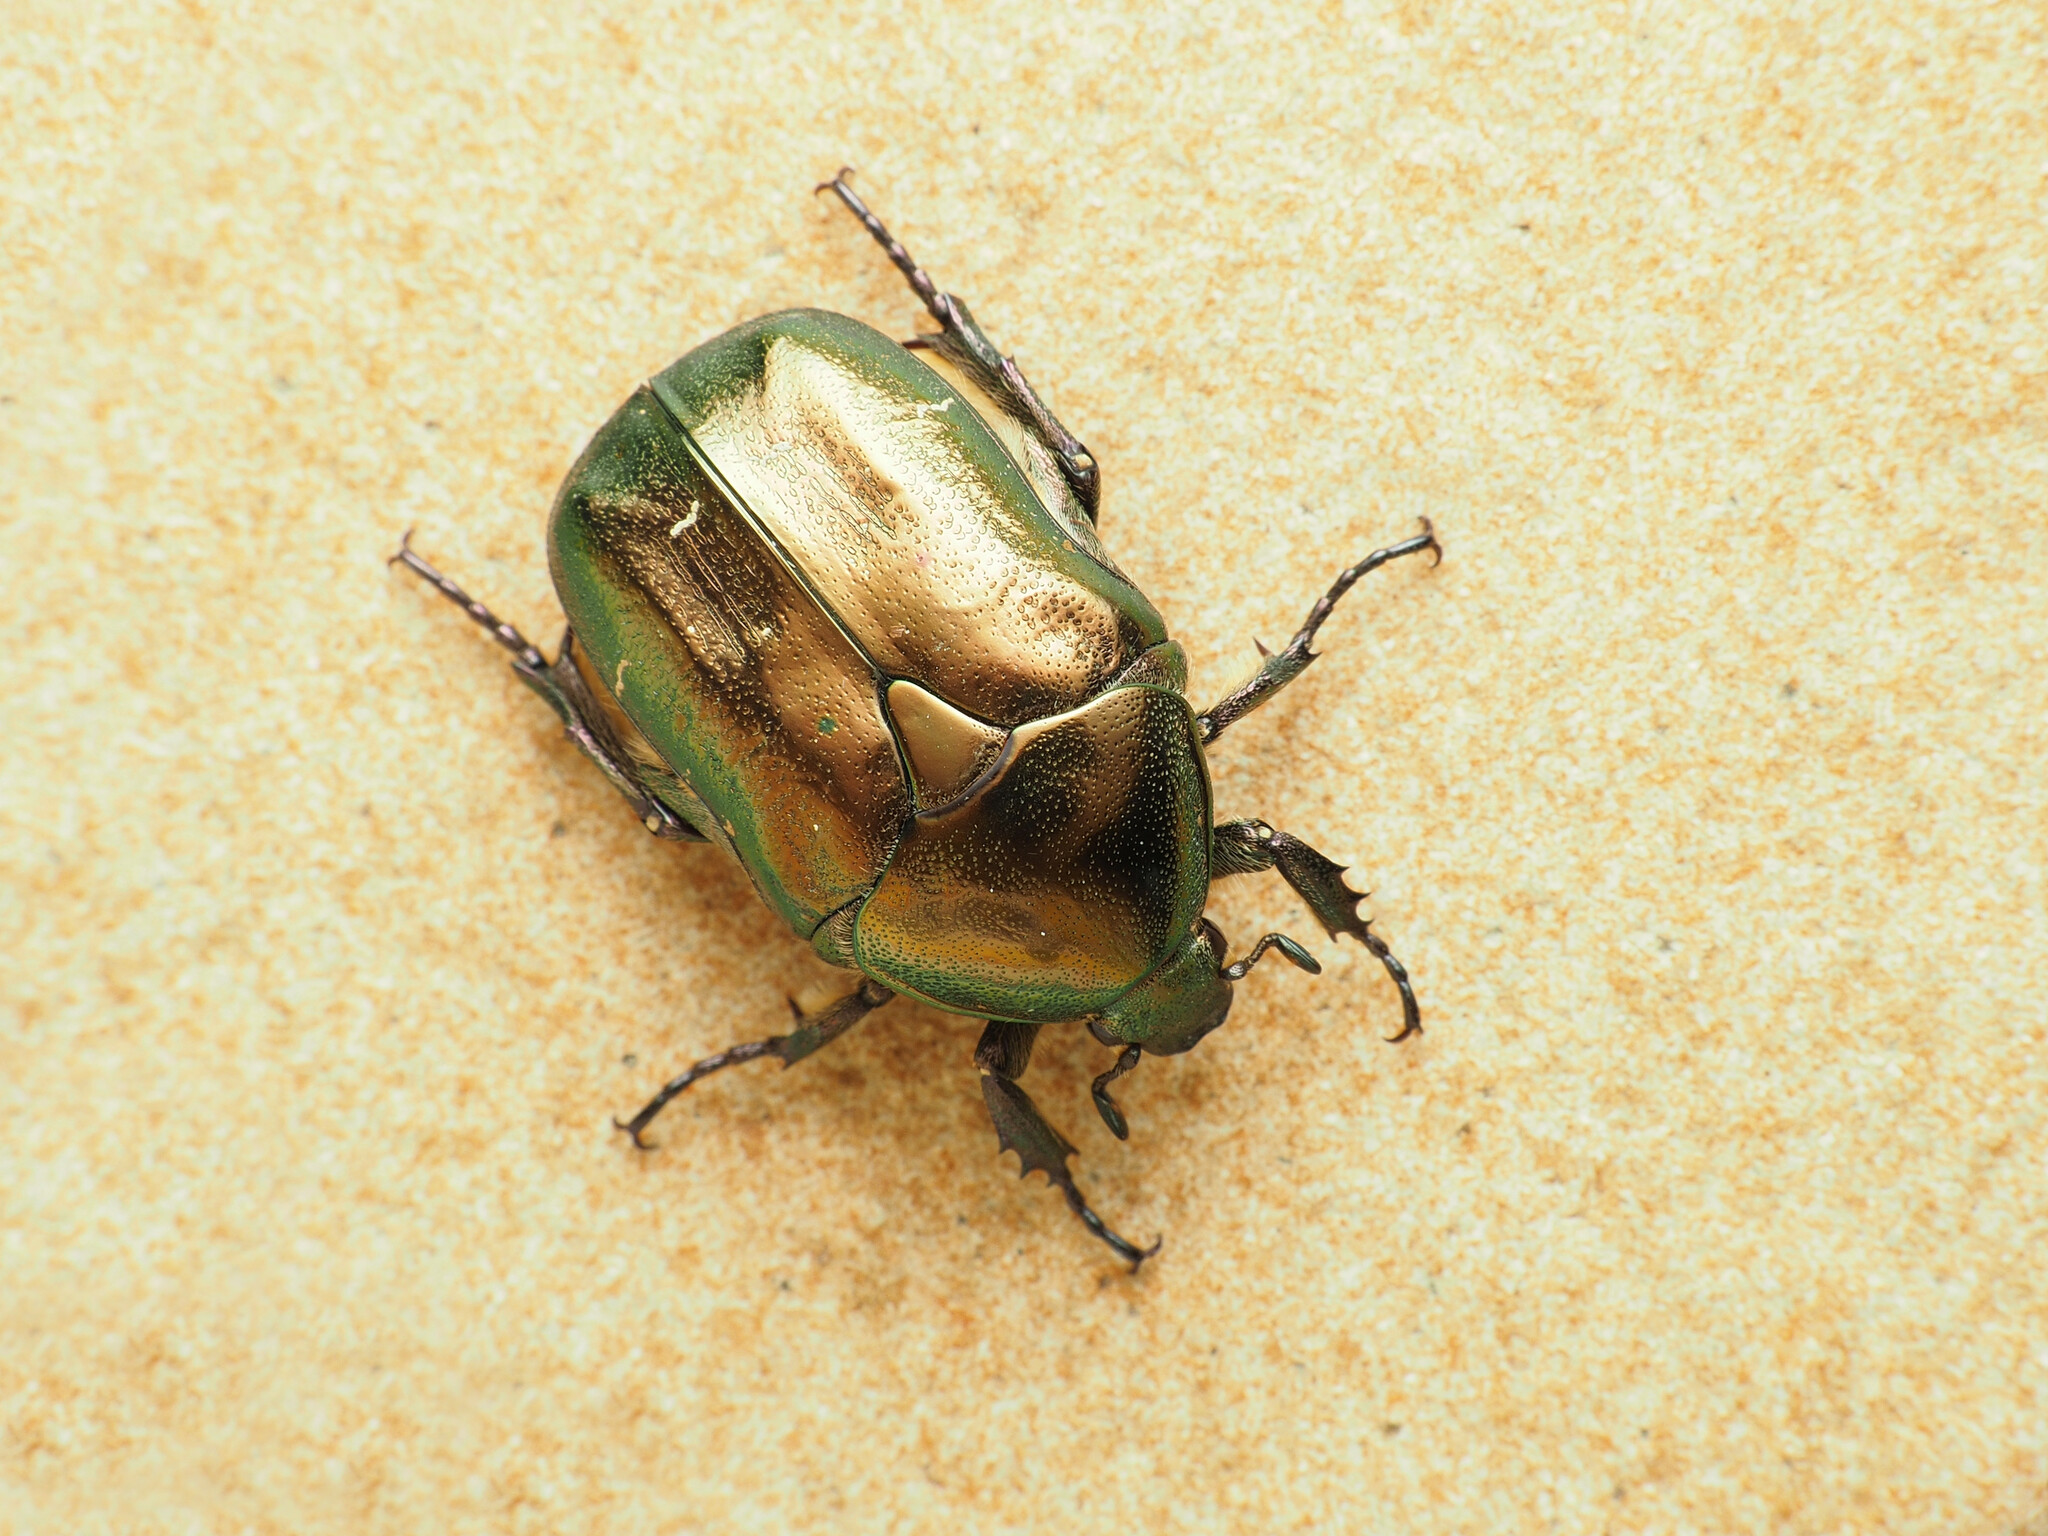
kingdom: Animalia
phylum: Arthropoda
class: Insecta
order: Coleoptera
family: Scarabaeidae
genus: Protaetia
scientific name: Protaetia cuprea
